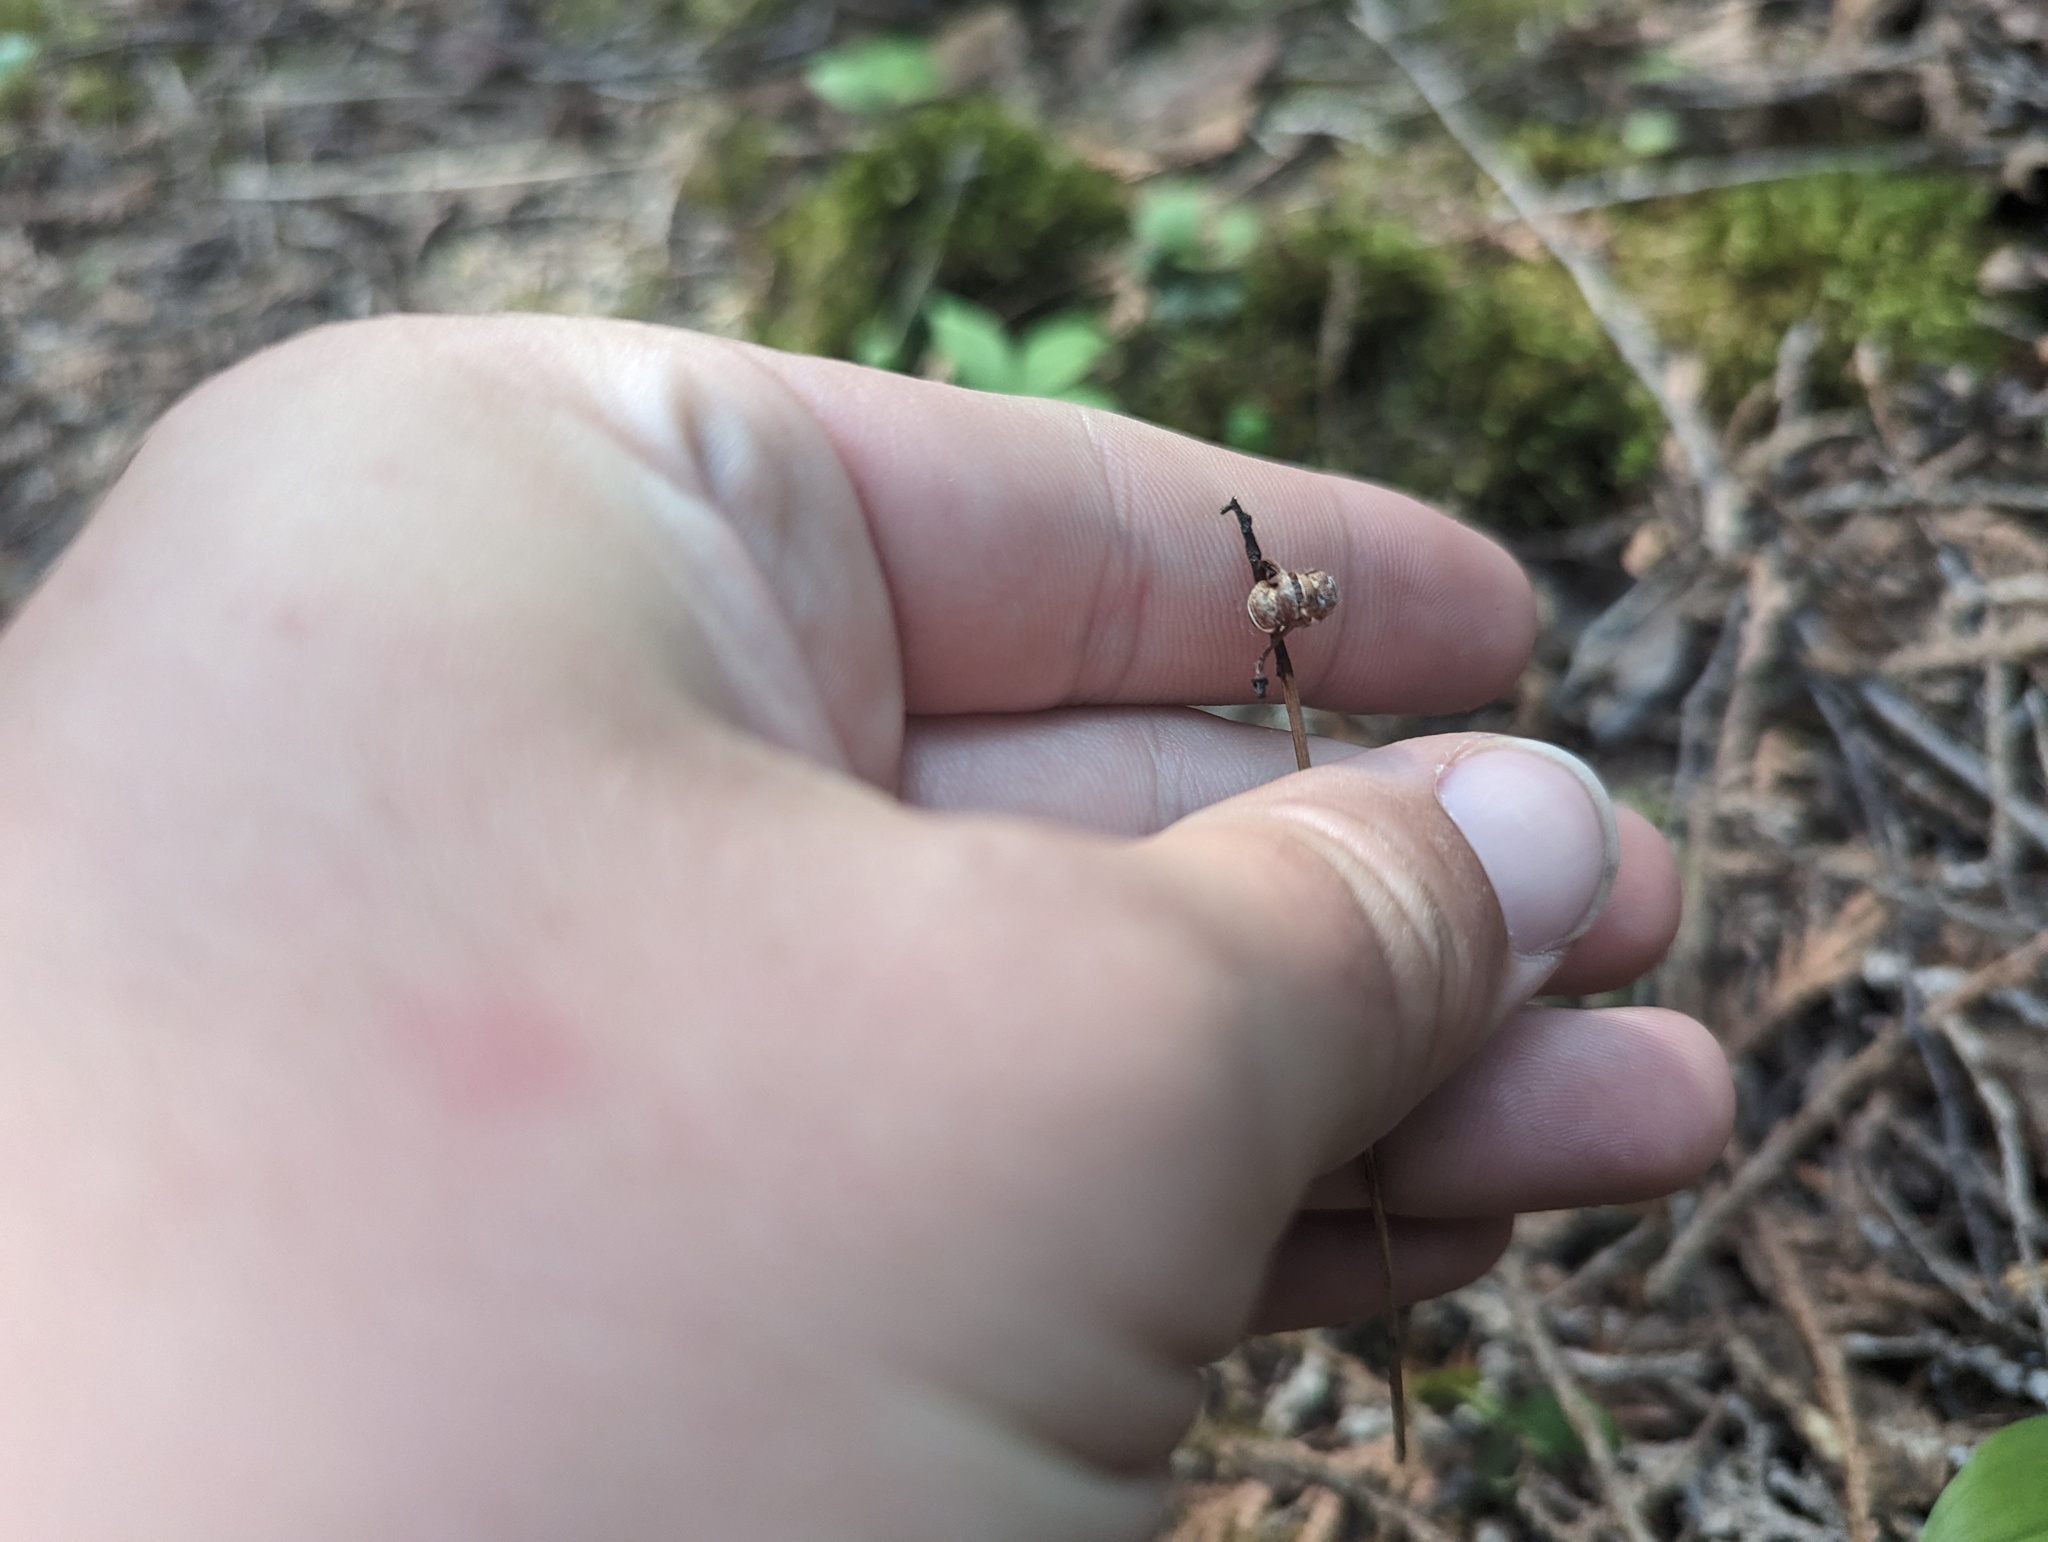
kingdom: Plantae
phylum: Tracheophyta
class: Magnoliopsida
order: Ericales
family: Ericaceae
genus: Pyrola
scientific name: Pyrola chlorantha
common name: Green wintergreen
